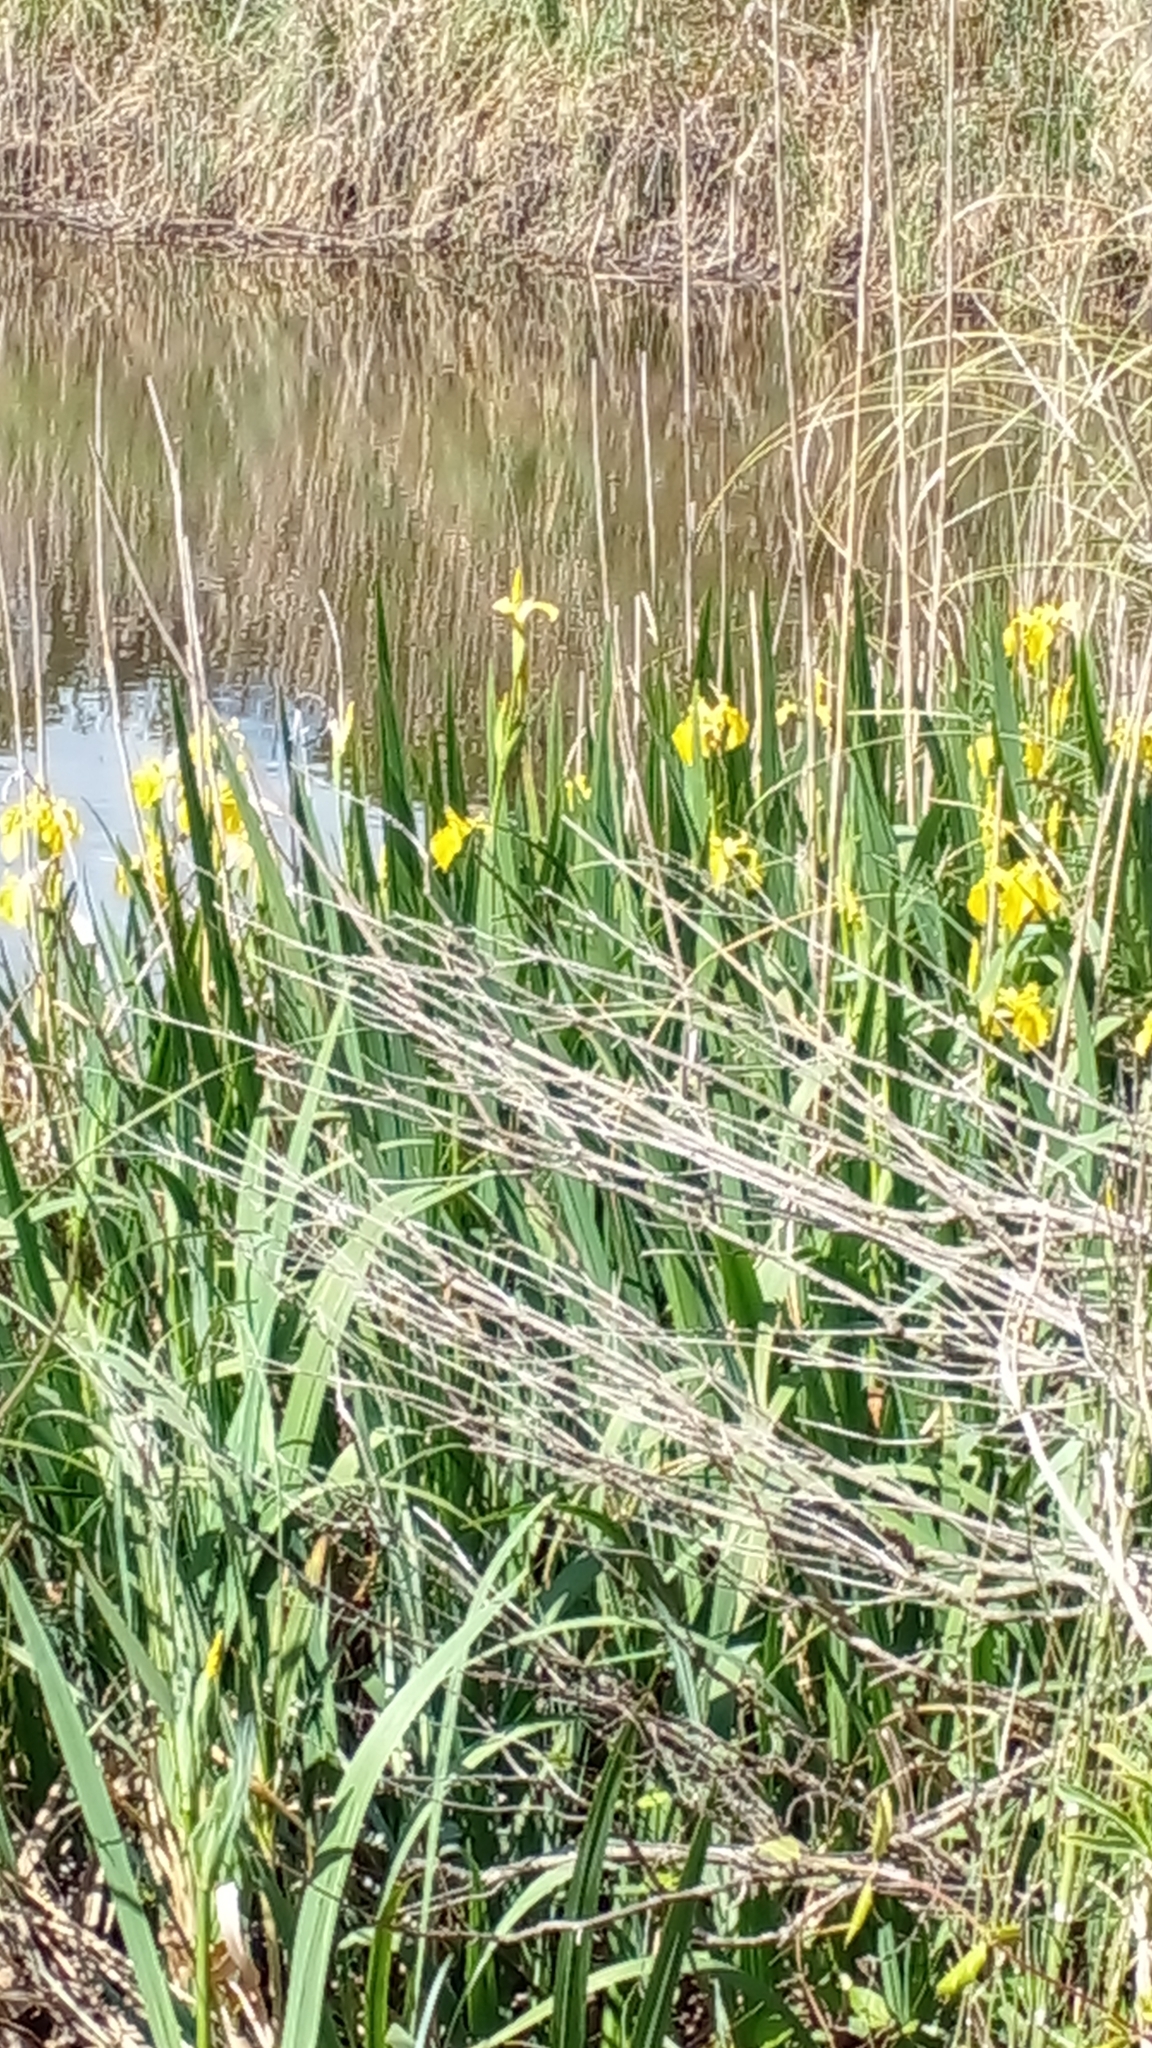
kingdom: Plantae
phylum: Tracheophyta
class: Liliopsida
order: Asparagales
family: Iridaceae
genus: Iris
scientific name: Iris pseudacorus
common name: Yellow flag
